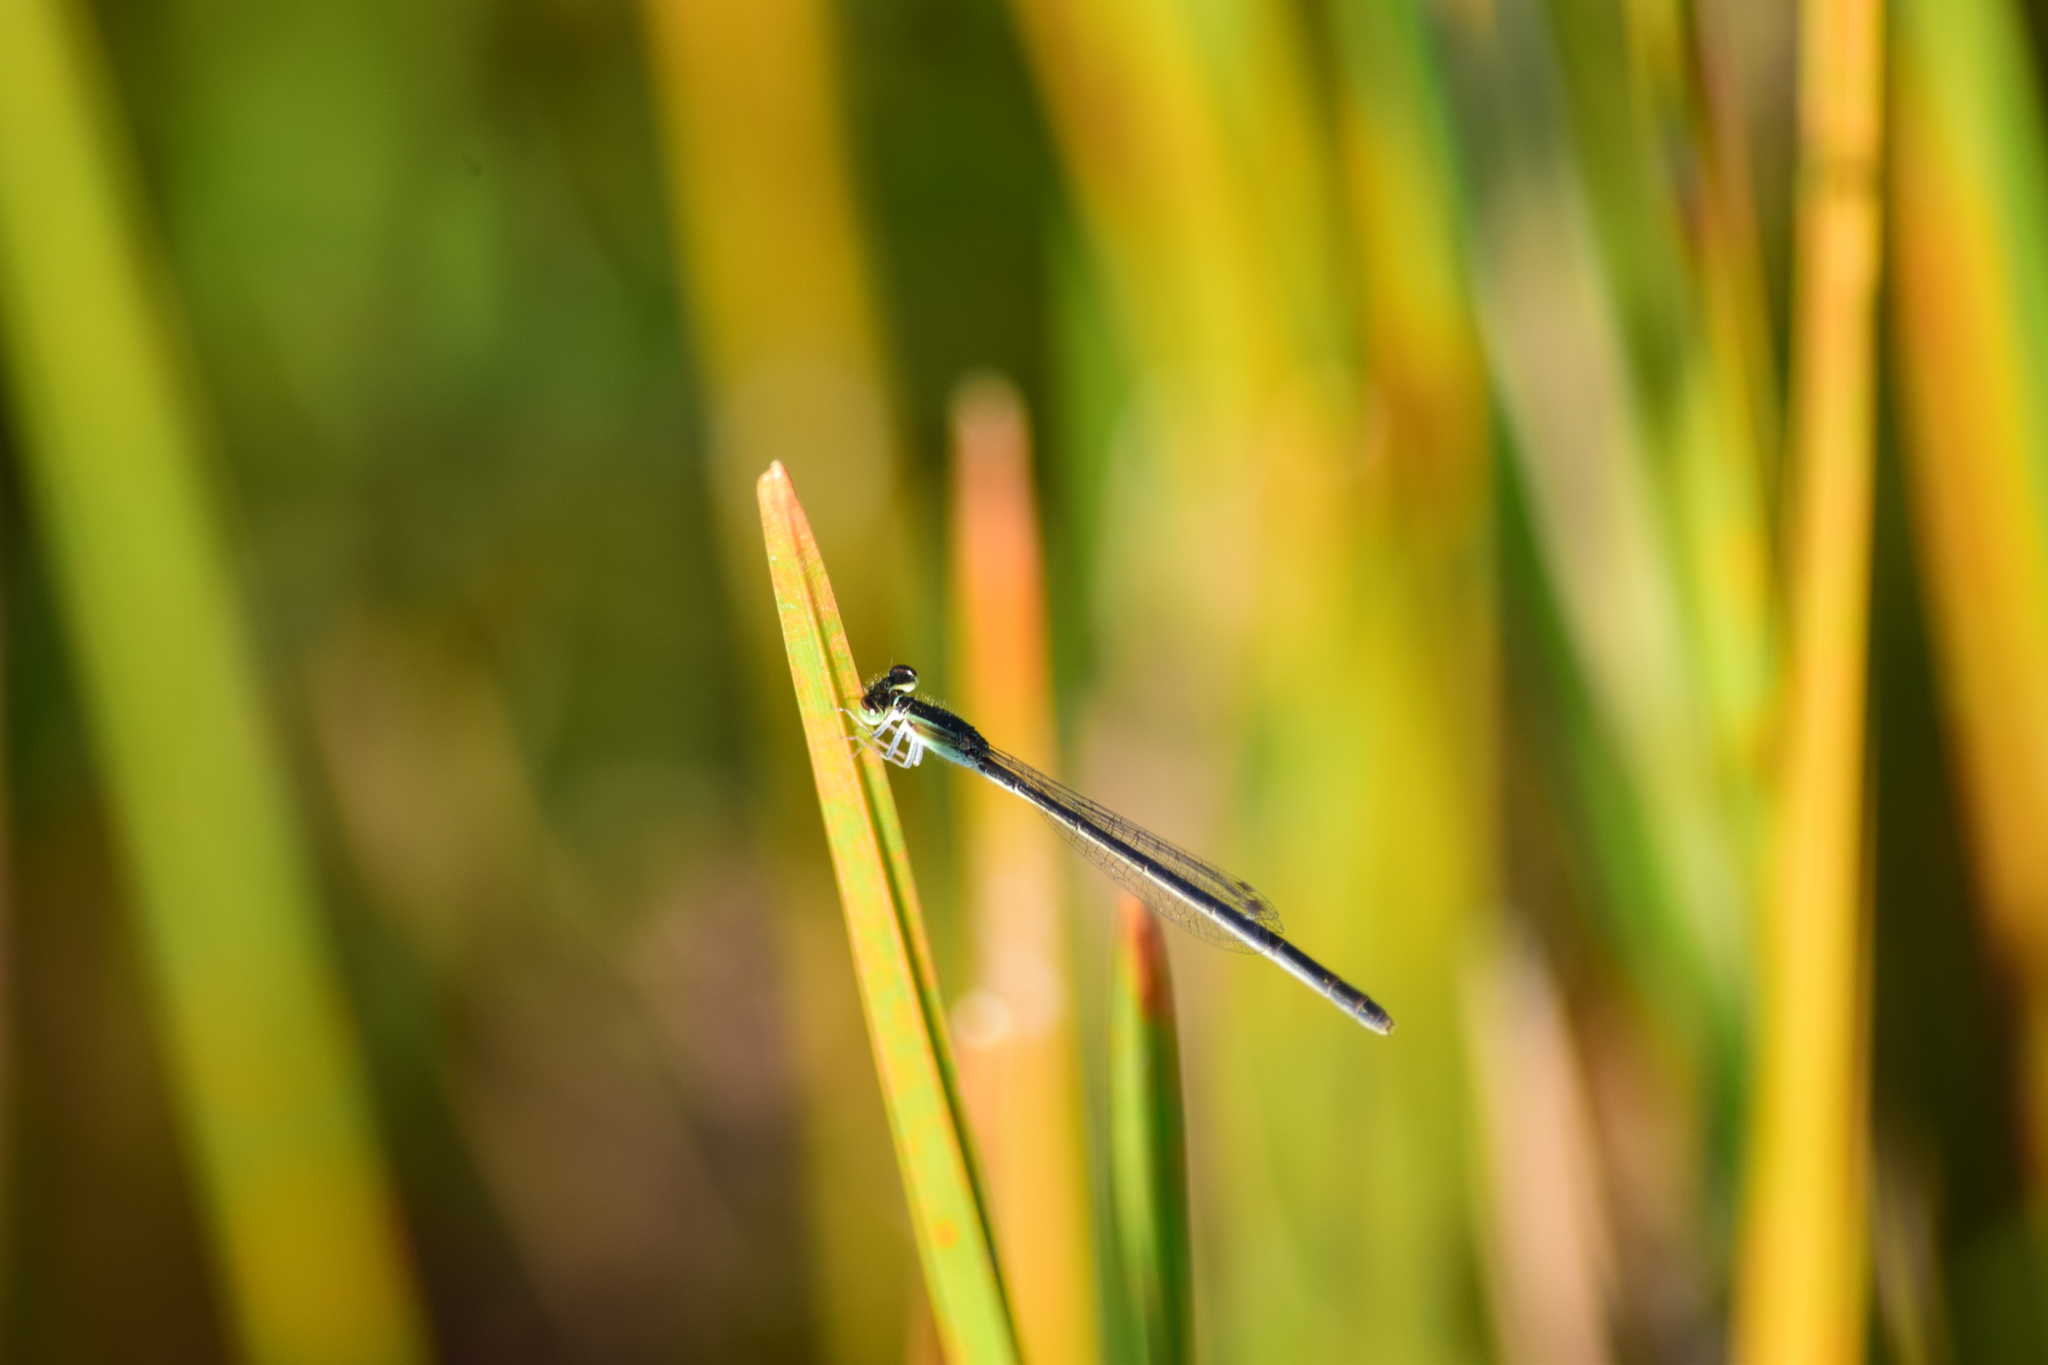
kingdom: Animalia
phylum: Arthropoda
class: Insecta
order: Odonata
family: Coenagrionidae
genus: Ischnura
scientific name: Ischnura hastata
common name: Citrine forktail
